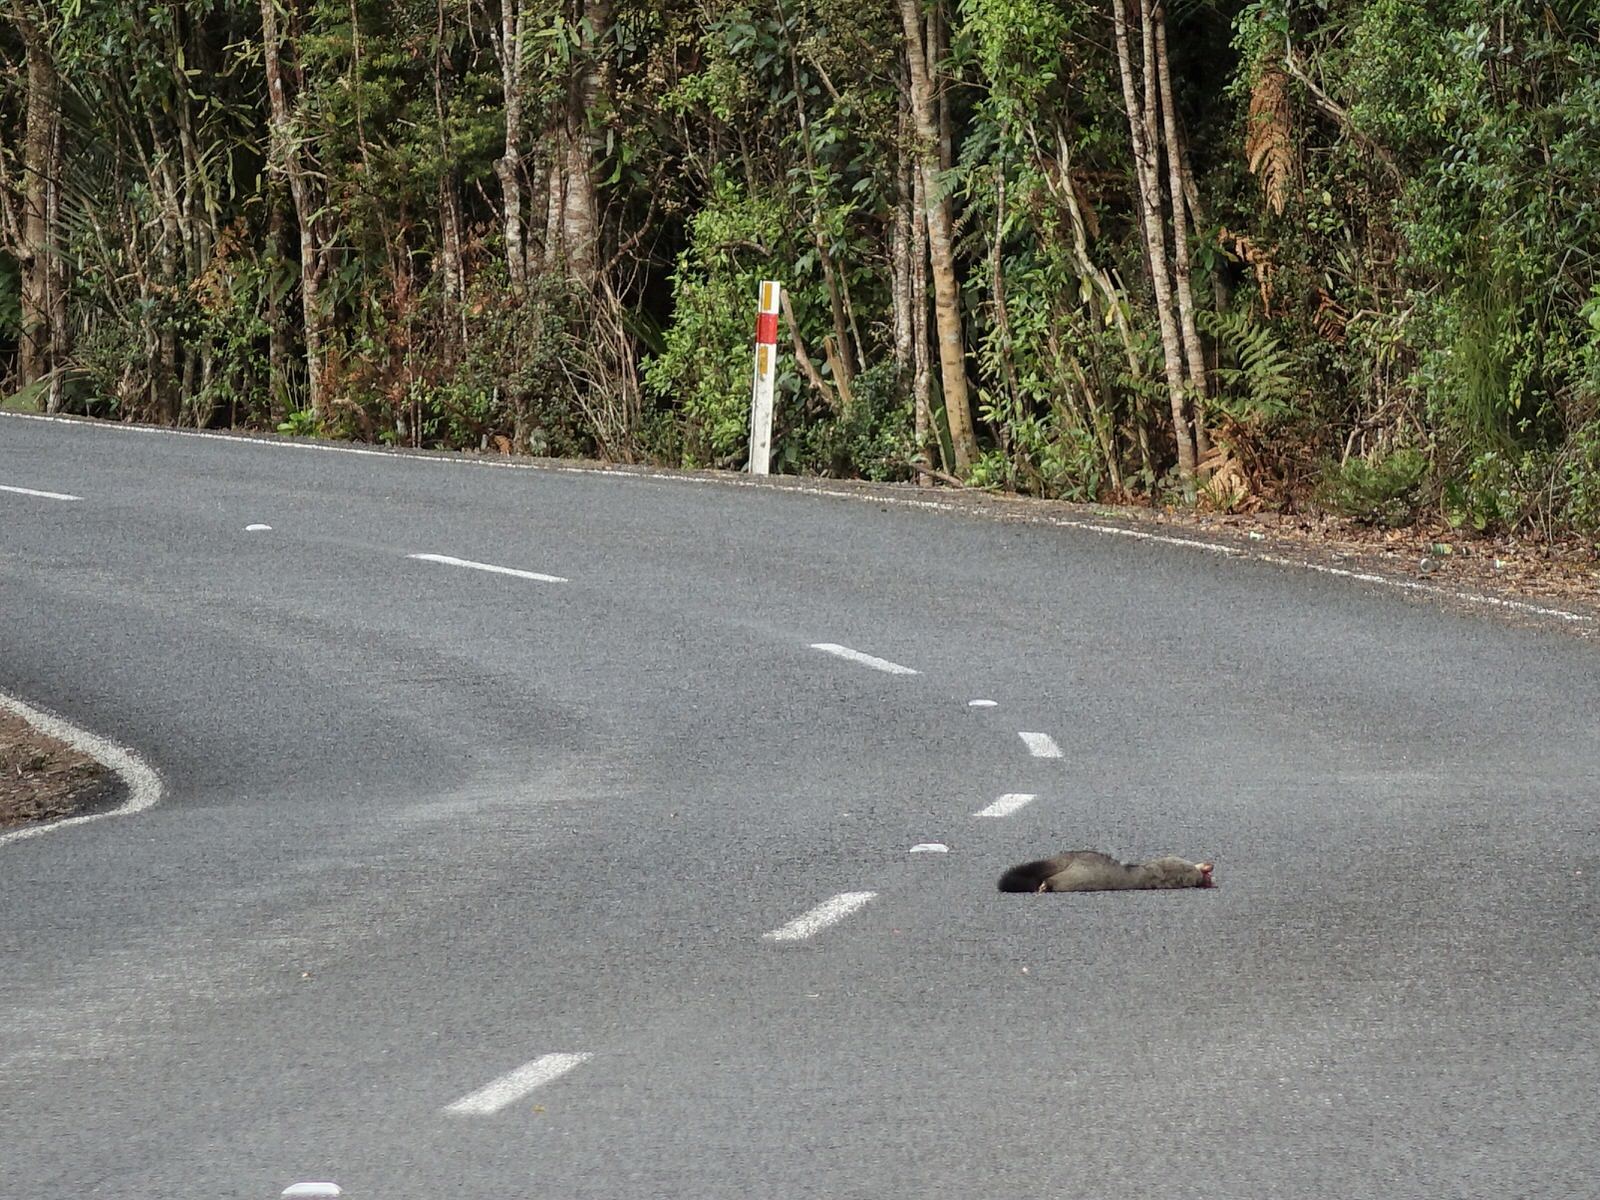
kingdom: Animalia
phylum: Chordata
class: Mammalia
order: Diprotodontia
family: Phalangeridae
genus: Trichosurus
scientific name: Trichosurus vulpecula
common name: Common brushtail
